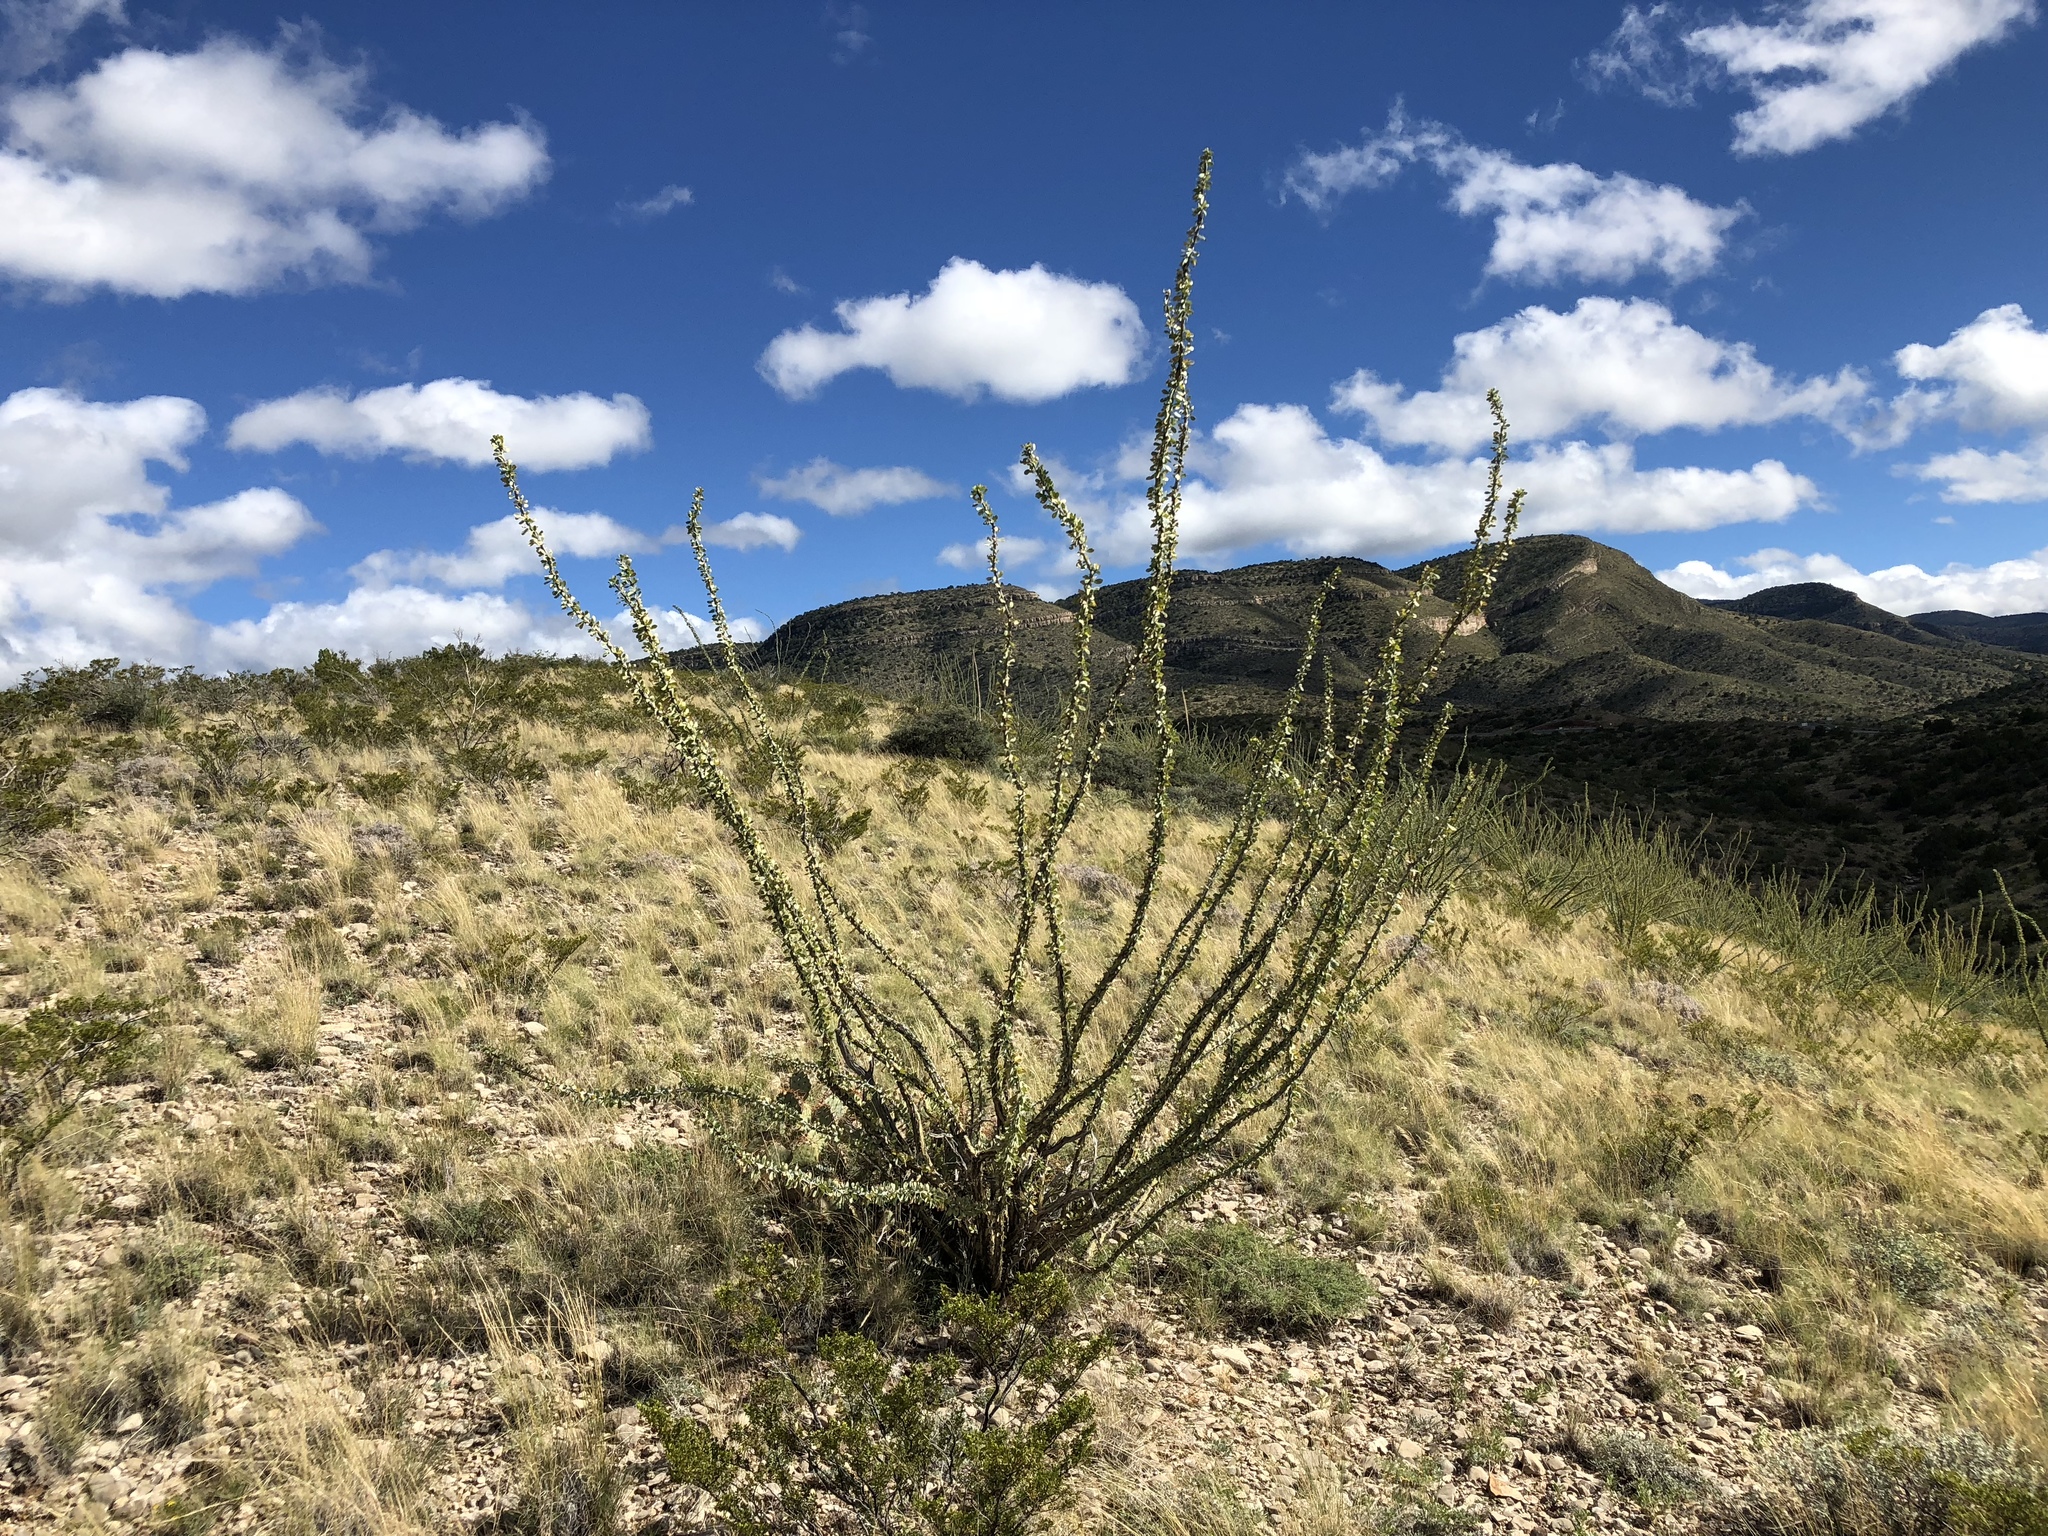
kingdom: Plantae
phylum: Tracheophyta
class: Magnoliopsida
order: Ericales
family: Fouquieriaceae
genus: Fouquieria
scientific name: Fouquieria splendens
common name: Vine-cactus
